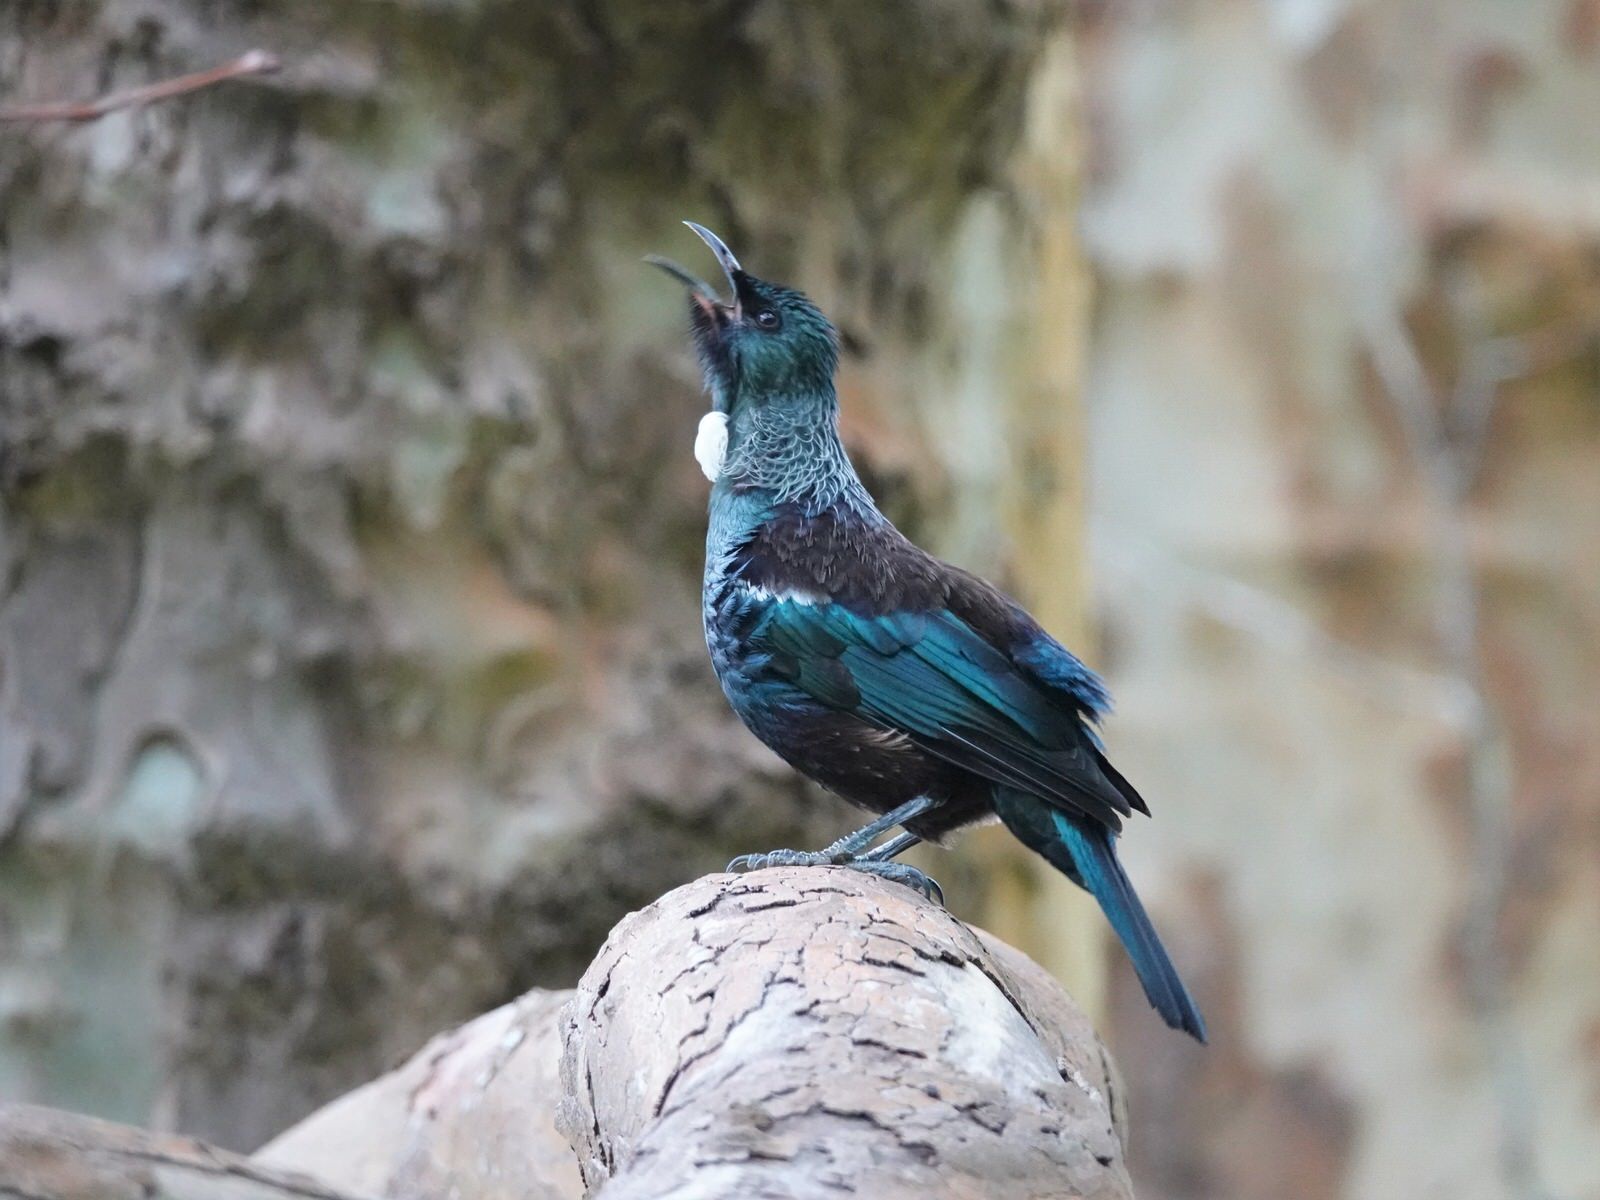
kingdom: Animalia
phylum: Chordata
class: Aves
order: Passeriformes
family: Meliphagidae
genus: Prosthemadera
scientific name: Prosthemadera novaeseelandiae
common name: Tui
